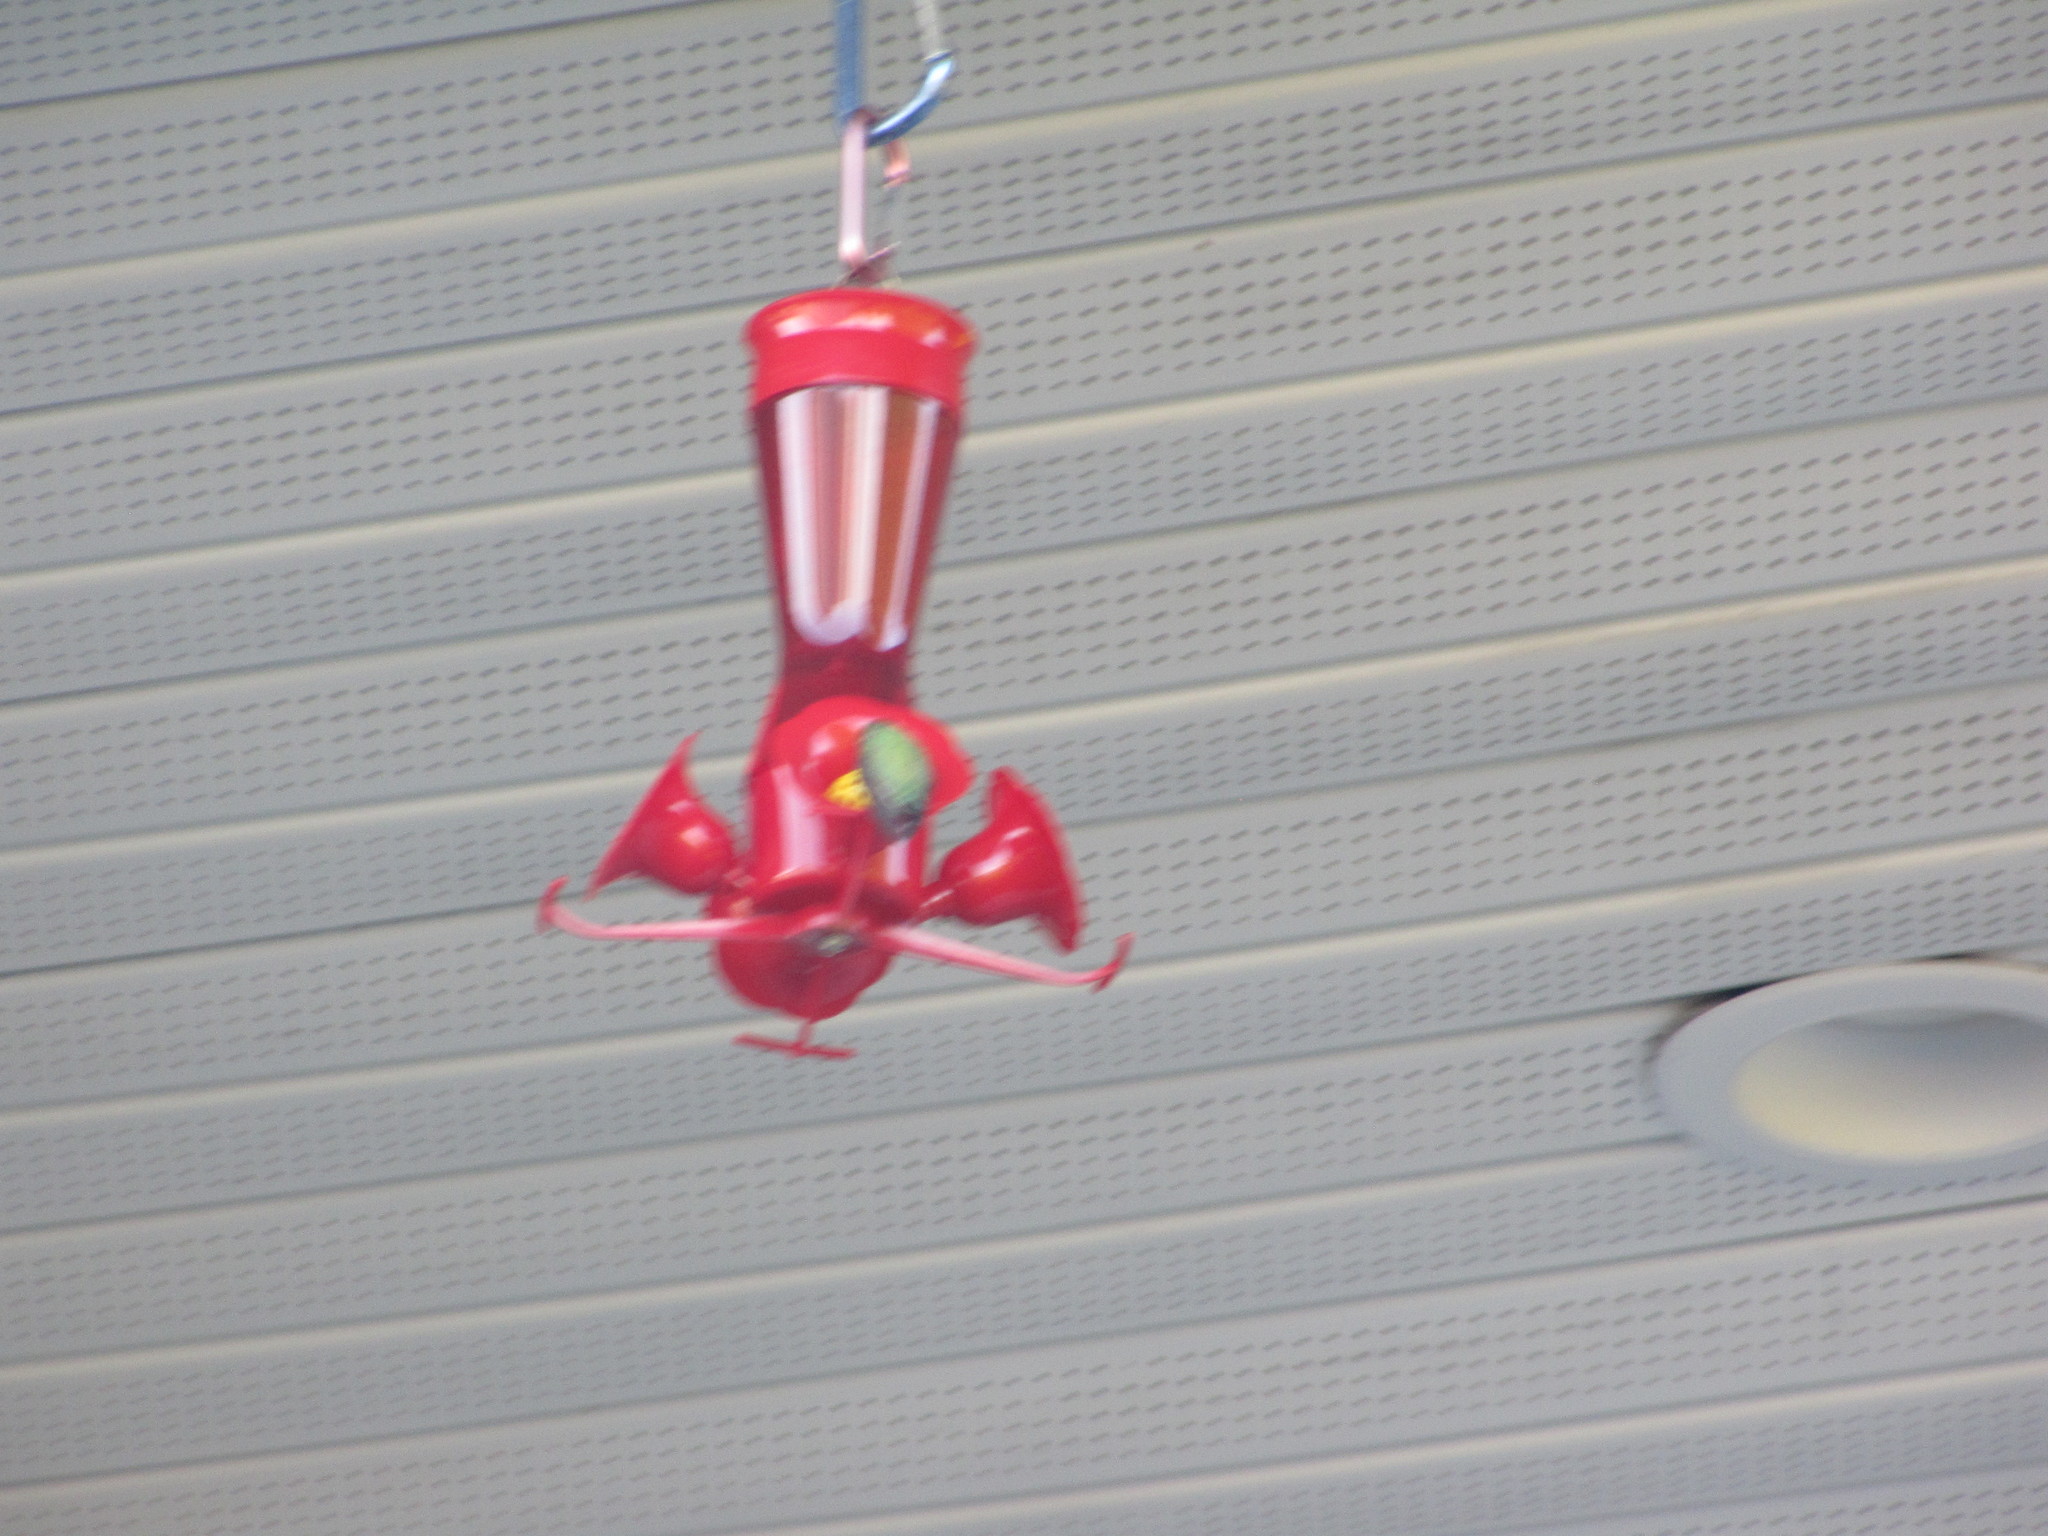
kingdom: Animalia
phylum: Chordata
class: Aves
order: Apodiformes
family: Trochilidae
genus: Calypte
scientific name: Calypte anna
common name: Anna's hummingbird
